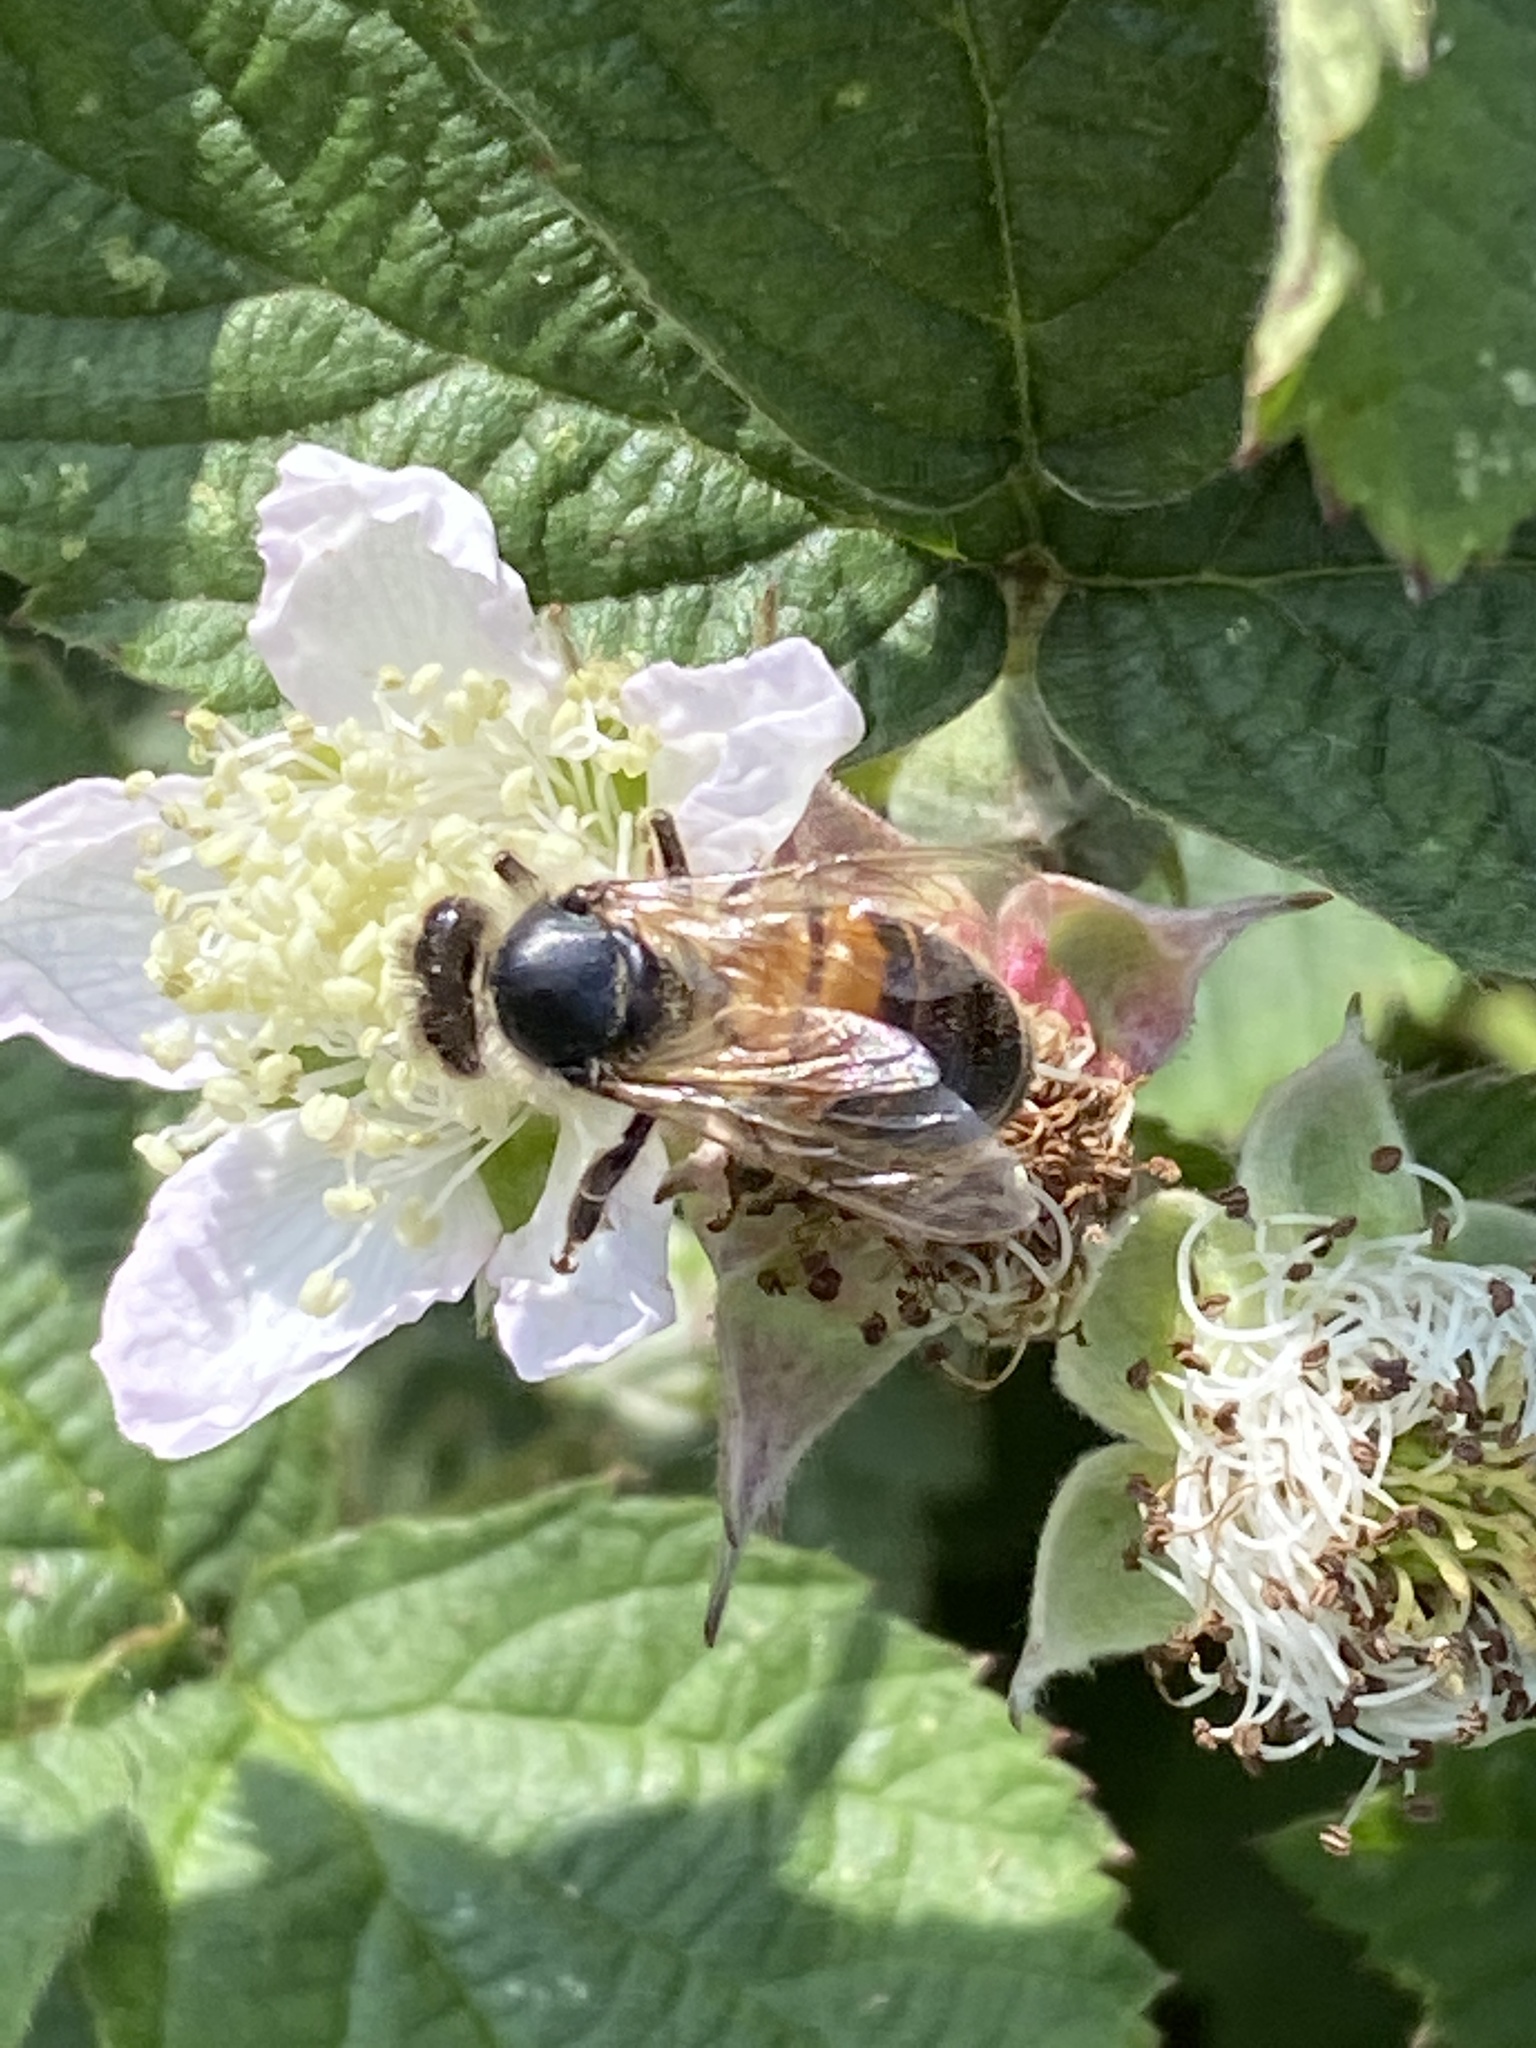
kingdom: Animalia
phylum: Arthropoda
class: Insecta
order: Hymenoptera
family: Apidae
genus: Apis
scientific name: Apis mellifera
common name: Honey bee
